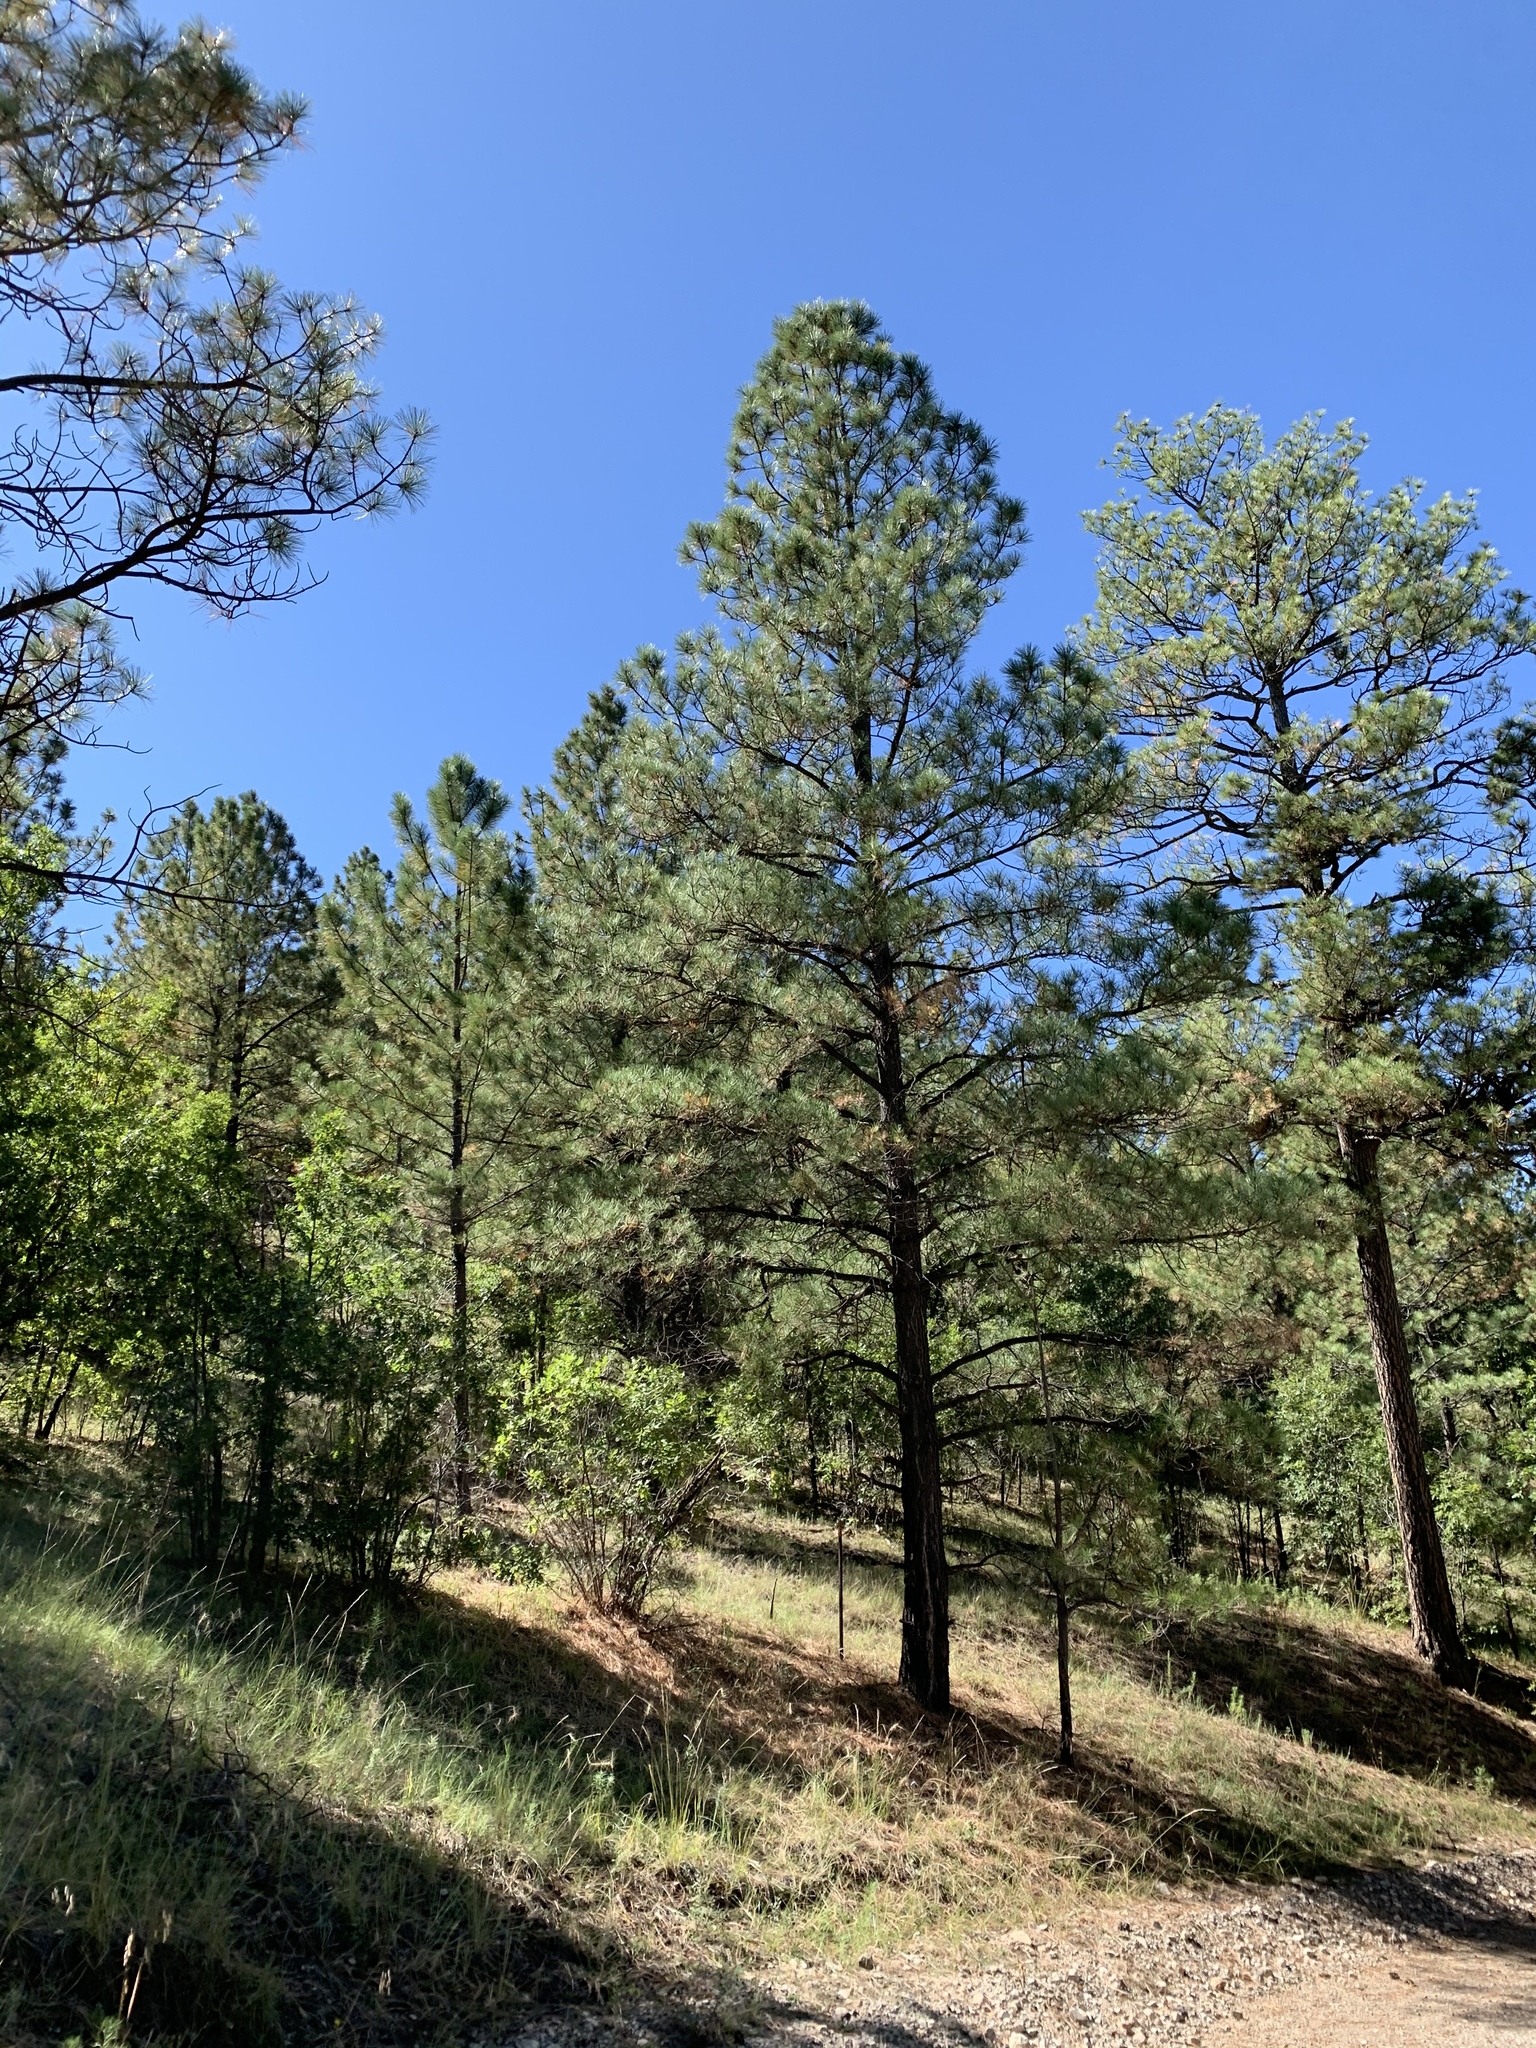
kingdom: Plantae
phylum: Tracheophyta
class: Pinopsida
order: Pinales
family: Pinaceae
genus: Pinus
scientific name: Pinus ponderosa
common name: Western yellow-pine
